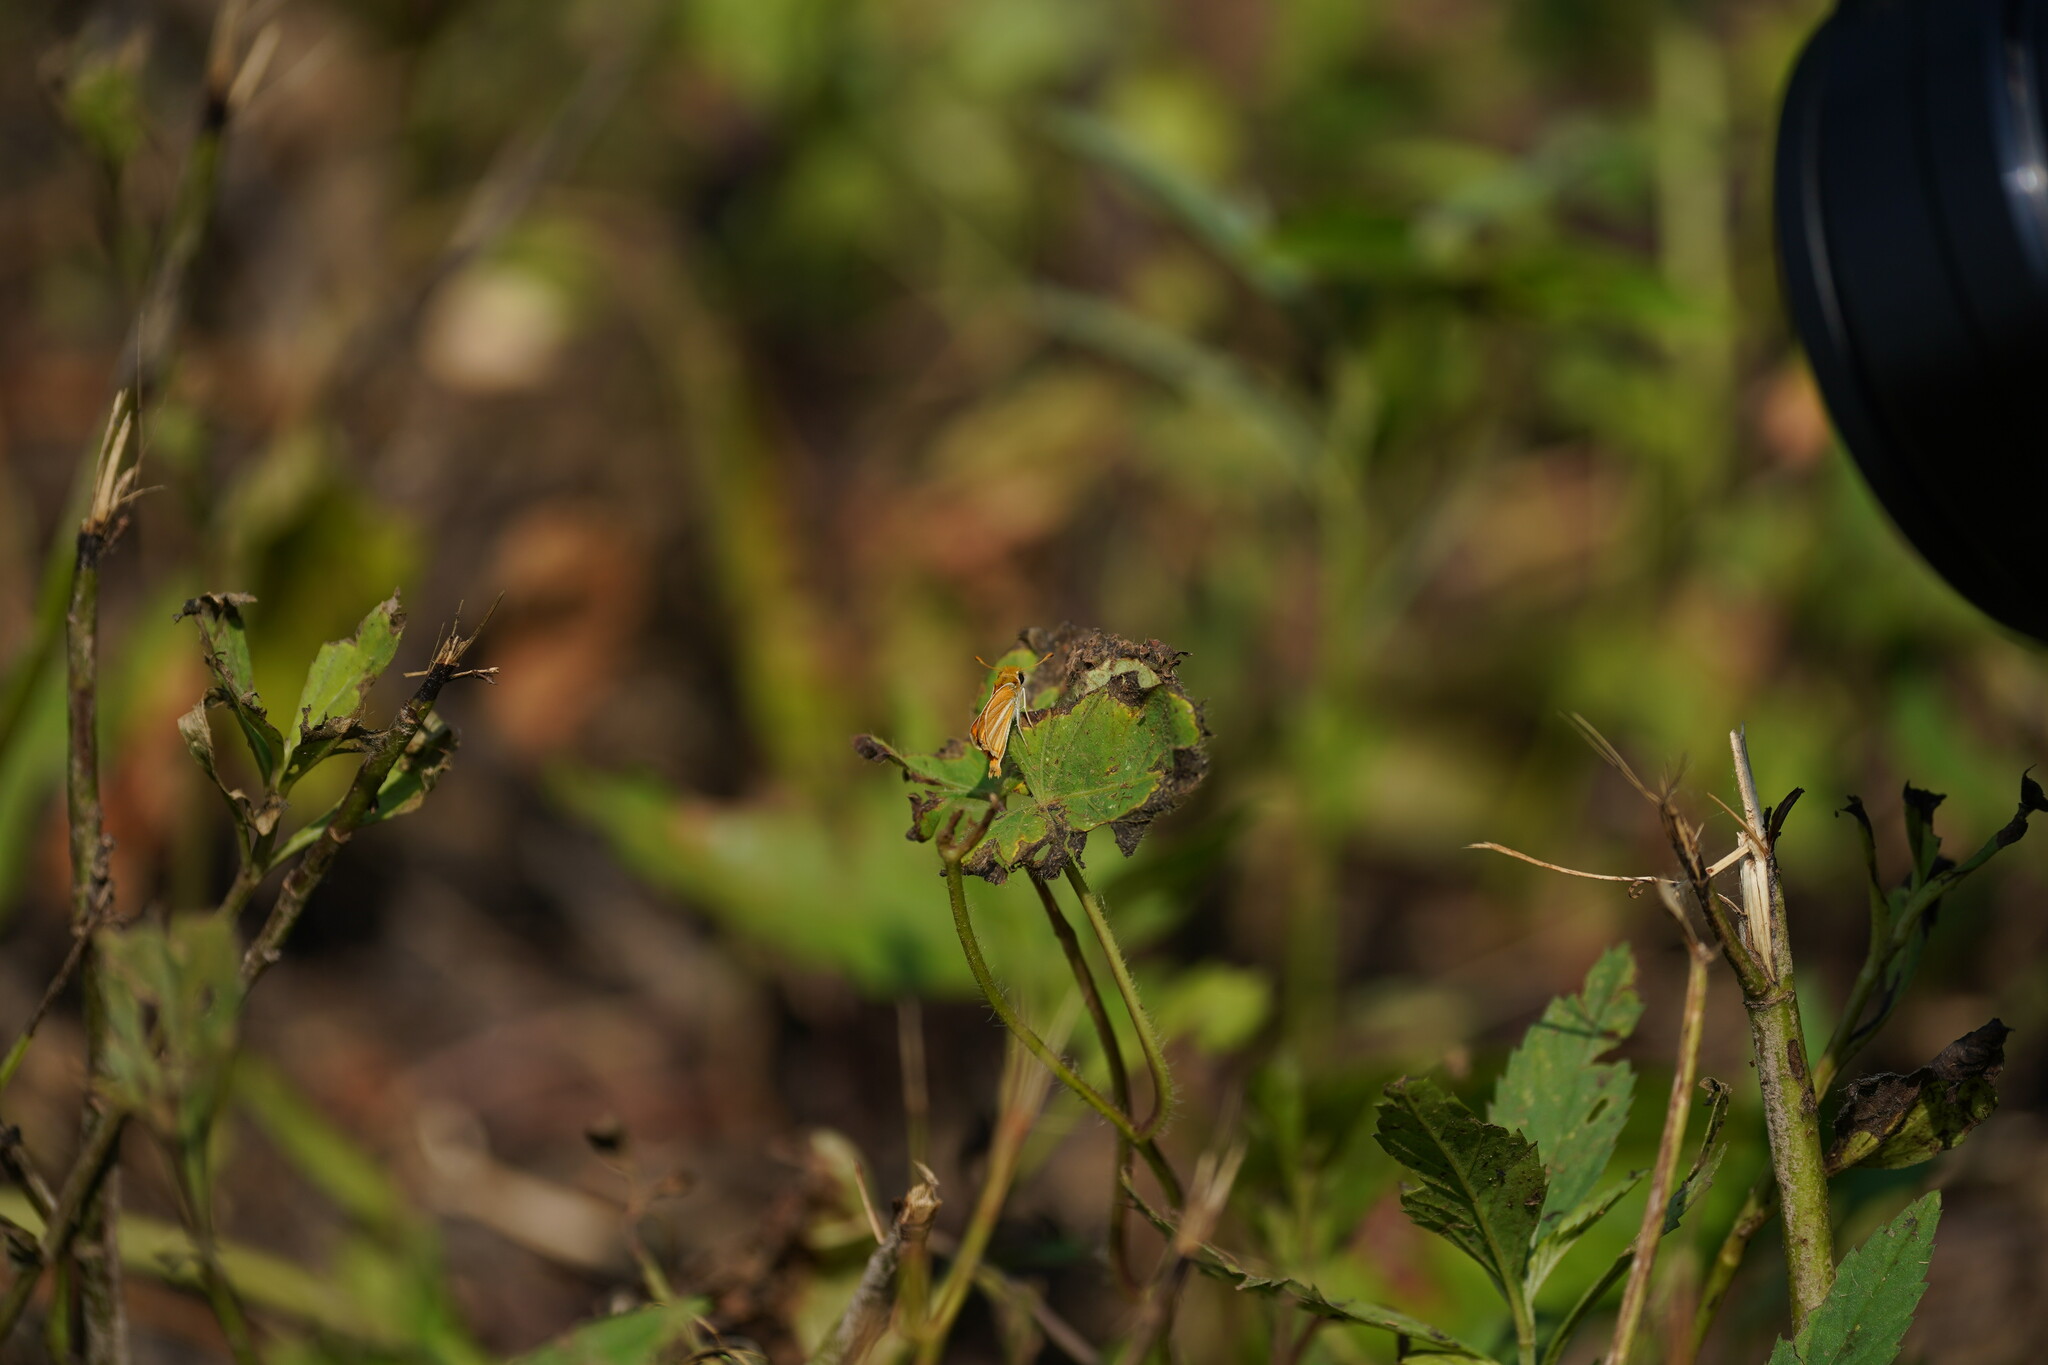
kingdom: Animalia
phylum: Arthropoda
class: Insecta
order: Lepidoptera
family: Hesperiidae
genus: Copaeodes
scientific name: Copaeodes minima
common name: Southern skipperling
